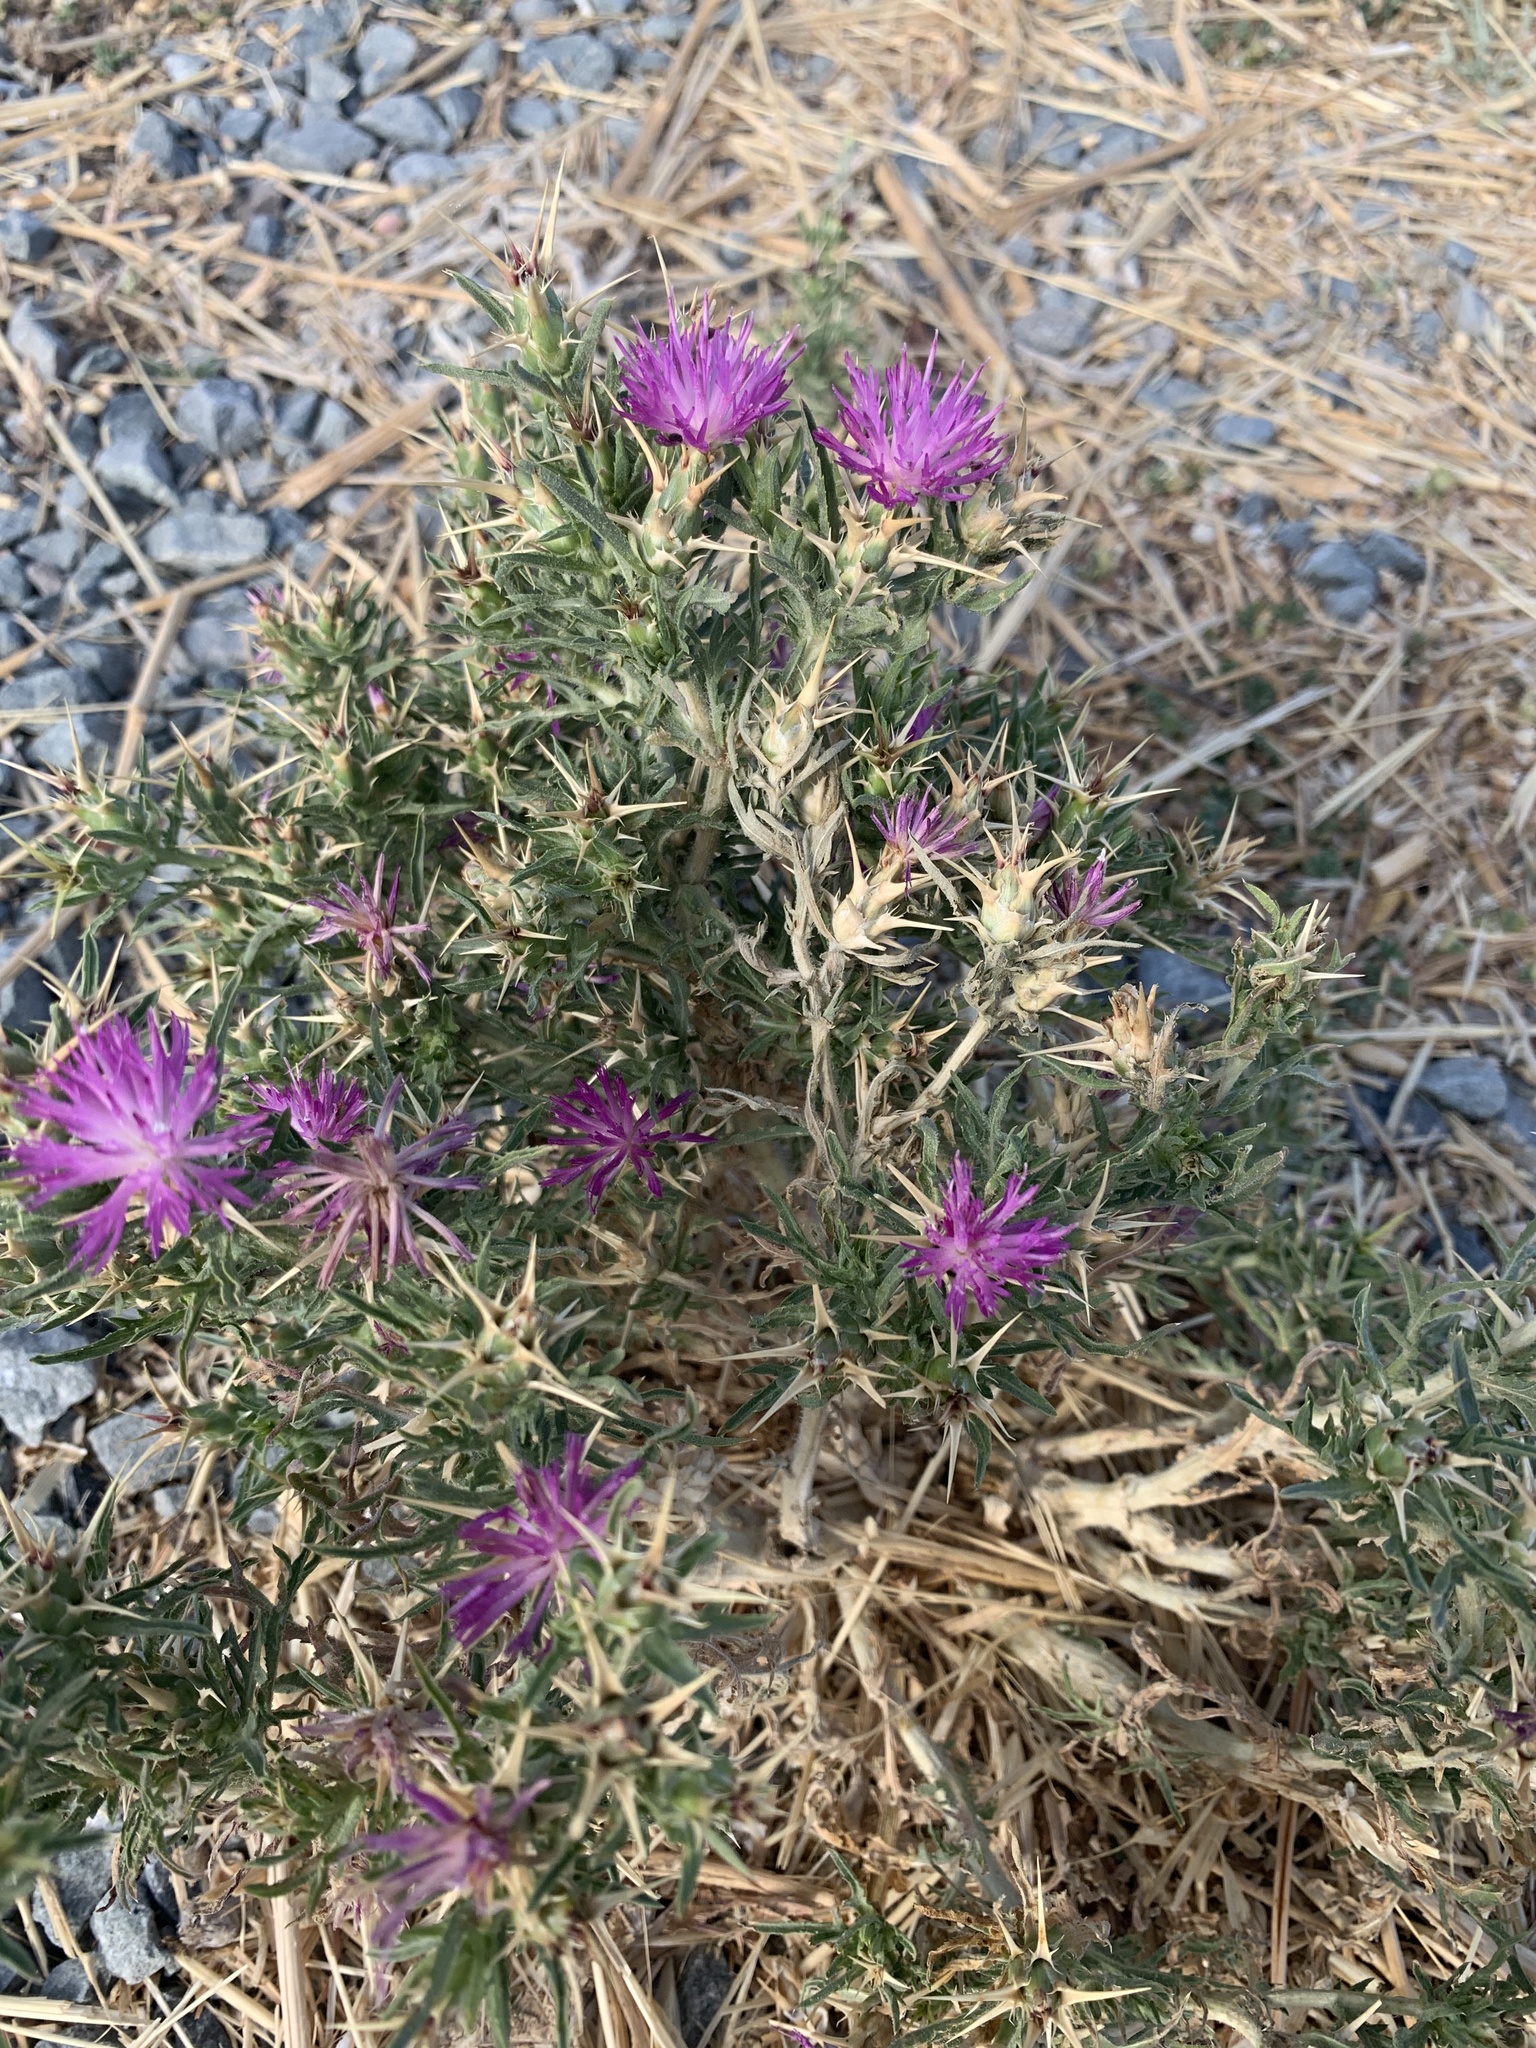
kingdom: Plantae
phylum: Tracheophyta
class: Magnoliopsida
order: Asterales
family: Asteraceae
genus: Centaurea
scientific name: Centaurea calcitrapa
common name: Red star-thistle
